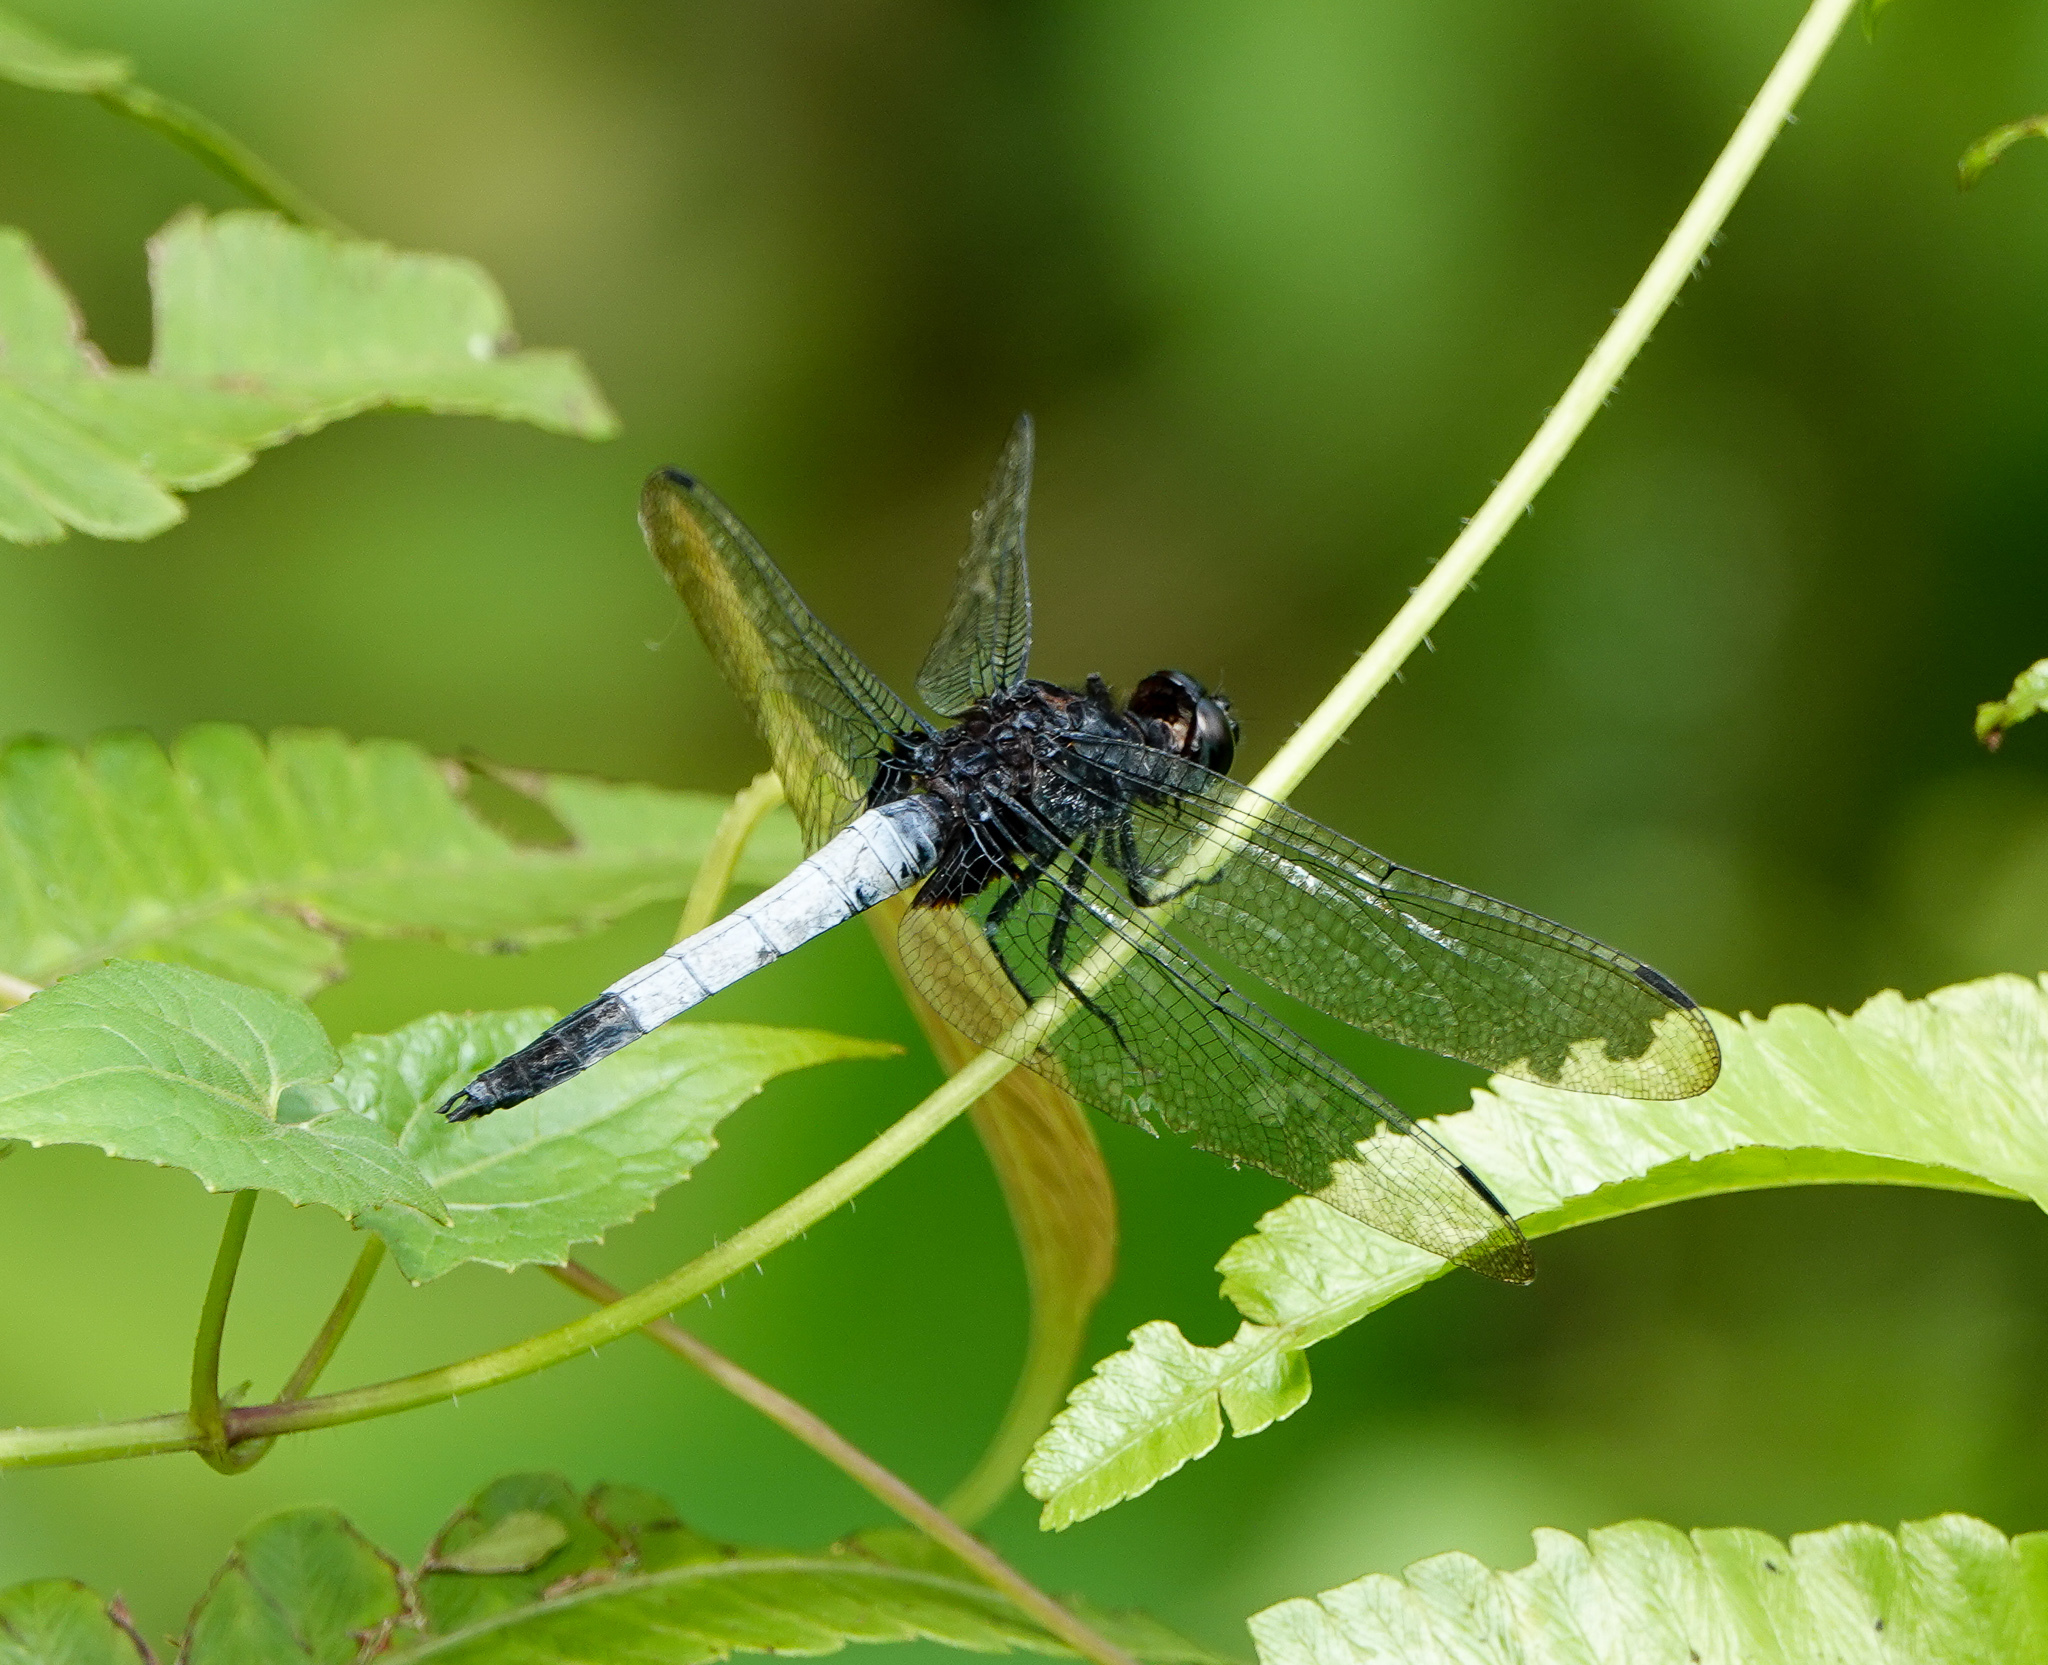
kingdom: Animalia
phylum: Arthropoda
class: Insecta
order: Odonata
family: Libellulidae
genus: Orthetrum
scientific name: Orthetrum triangulare
